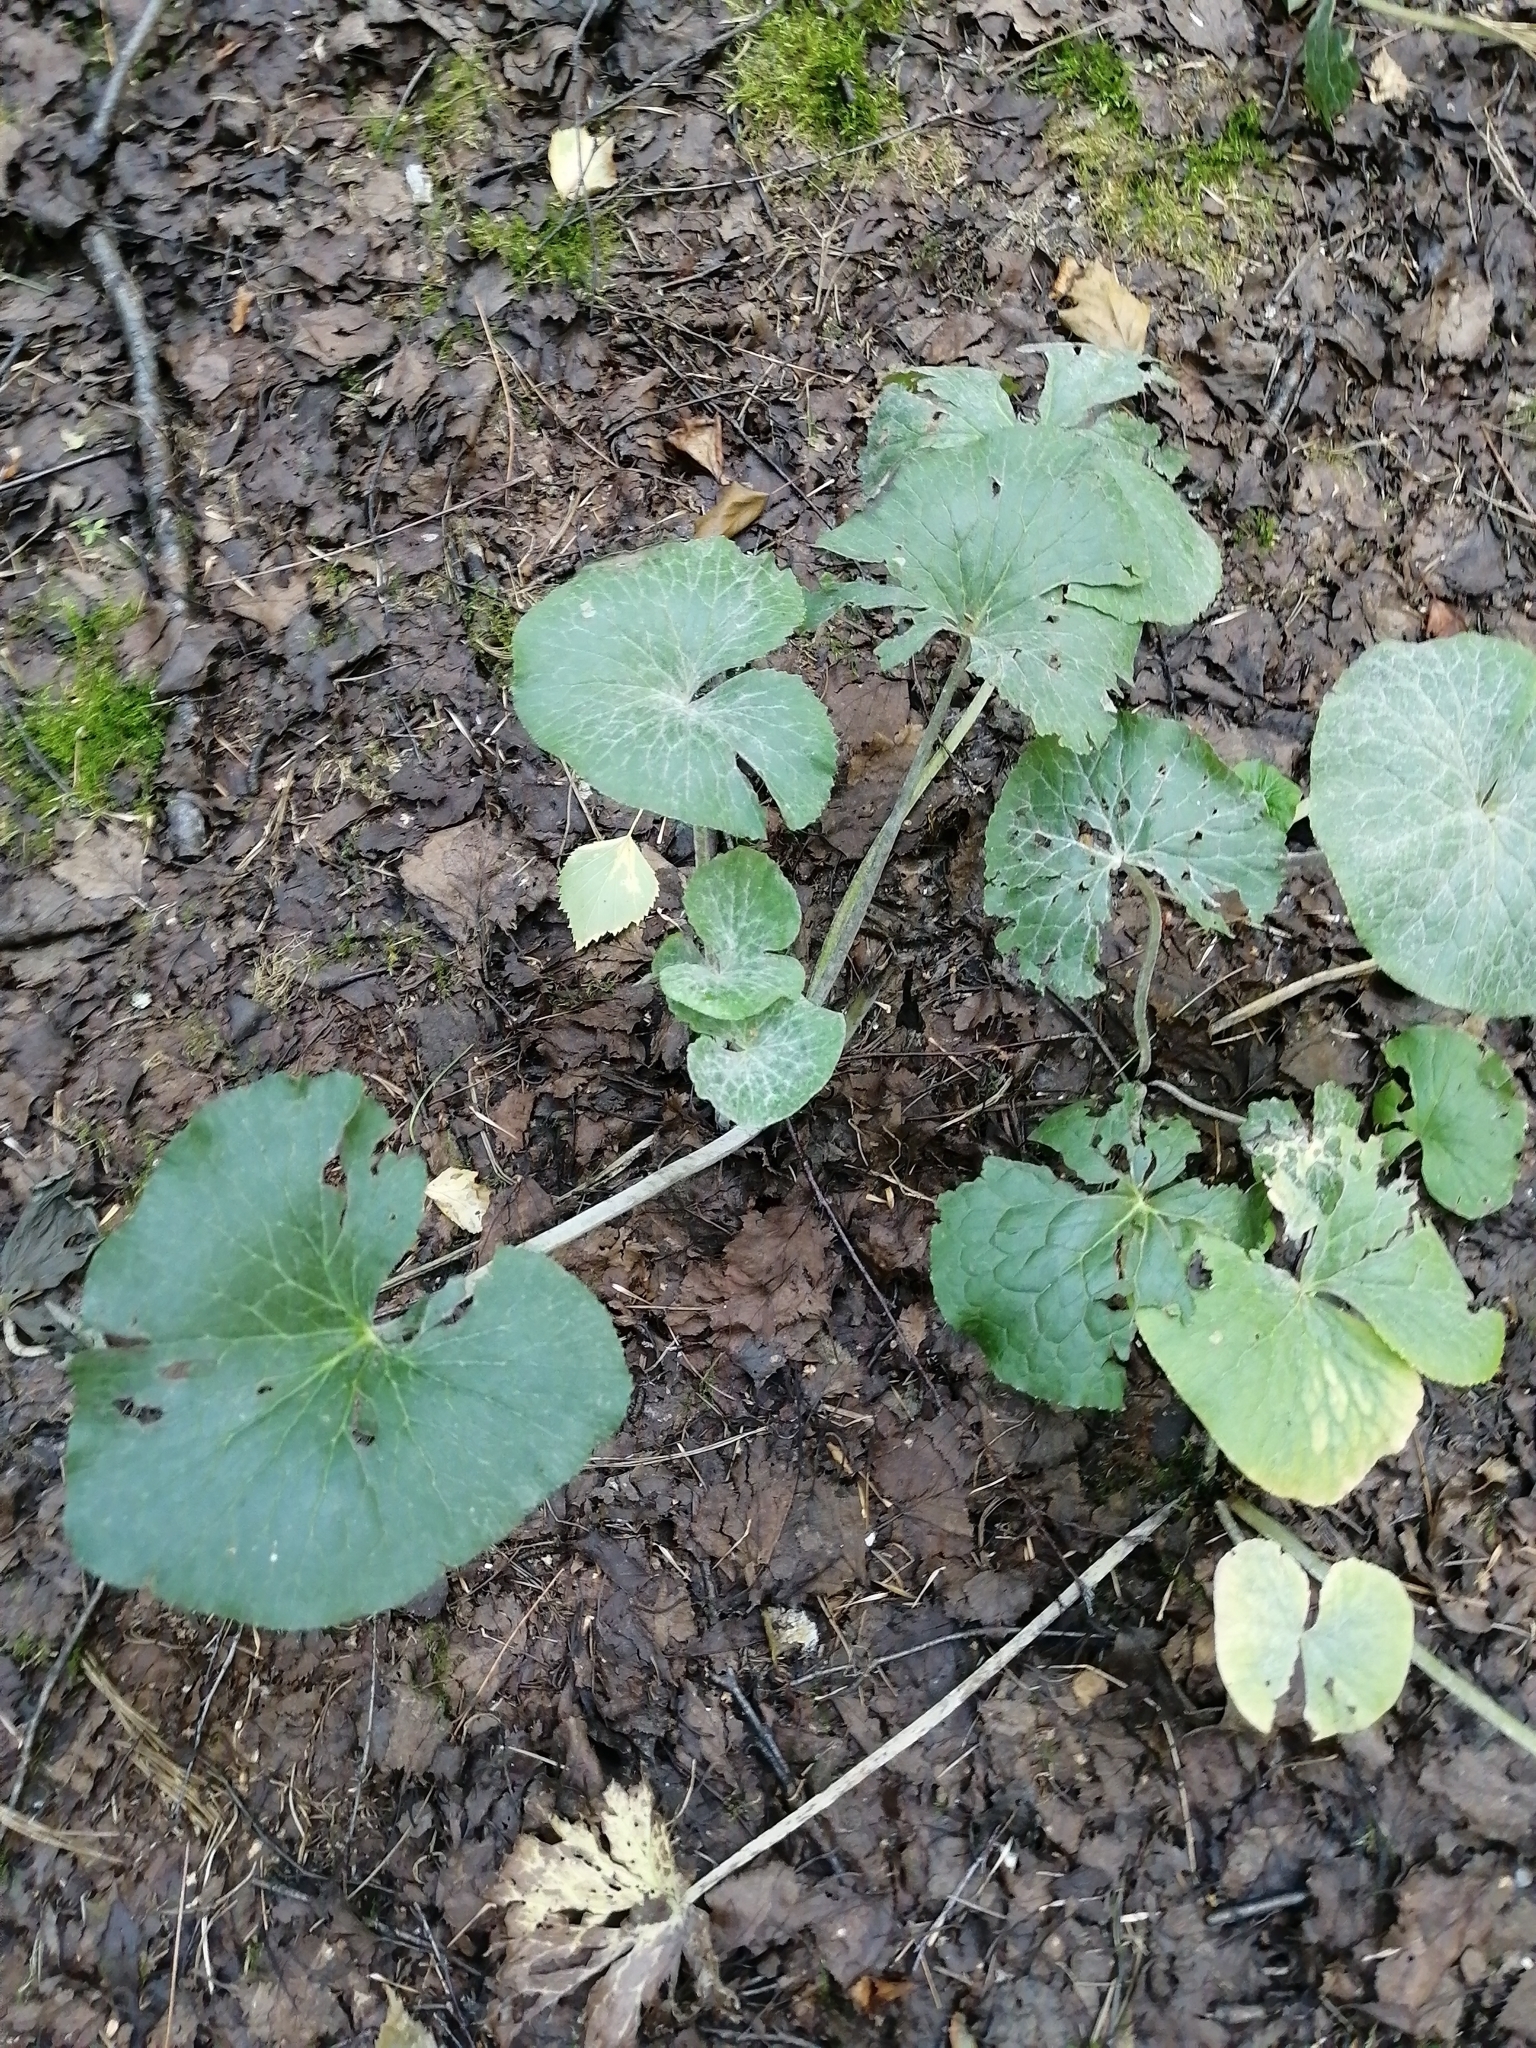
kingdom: Plantae
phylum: Tracheophyta
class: Magnoliopsida
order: Ranunculales
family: Ranunculaceae
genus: Caltha
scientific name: Caltha palustris
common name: Marsh marigold
